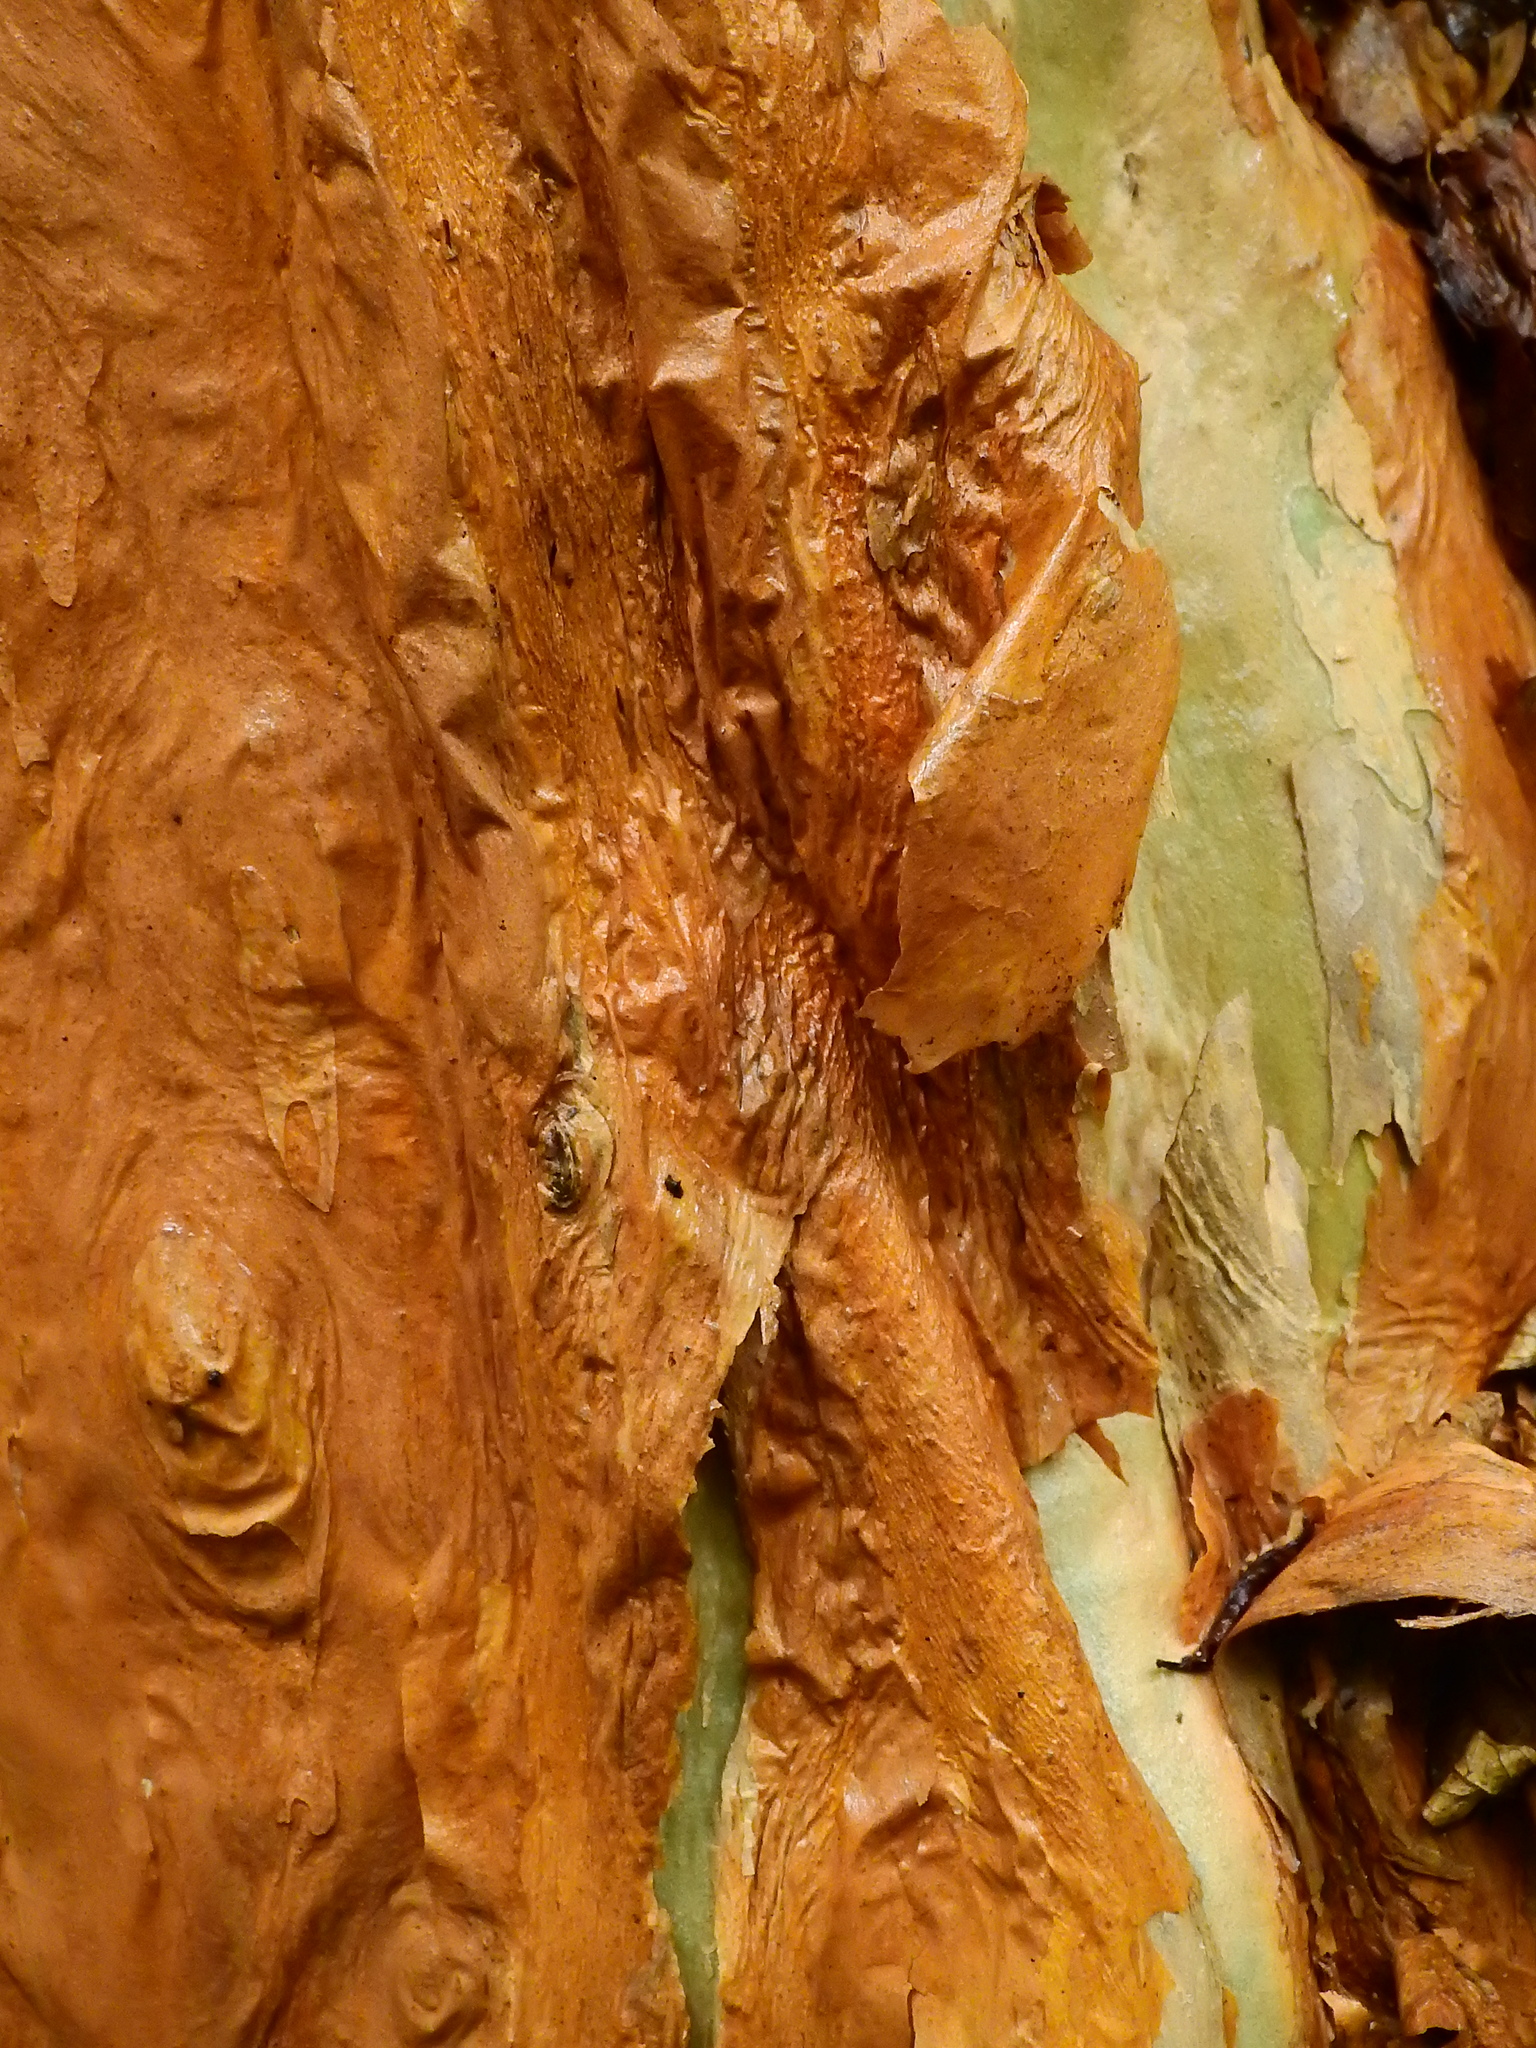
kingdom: Plantae
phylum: Tracheophyta
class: Magnoliopsida
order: Myrtales
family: Onagraceae
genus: Fuchsia
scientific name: Fuchsia excorticata
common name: Tree fuchsia
